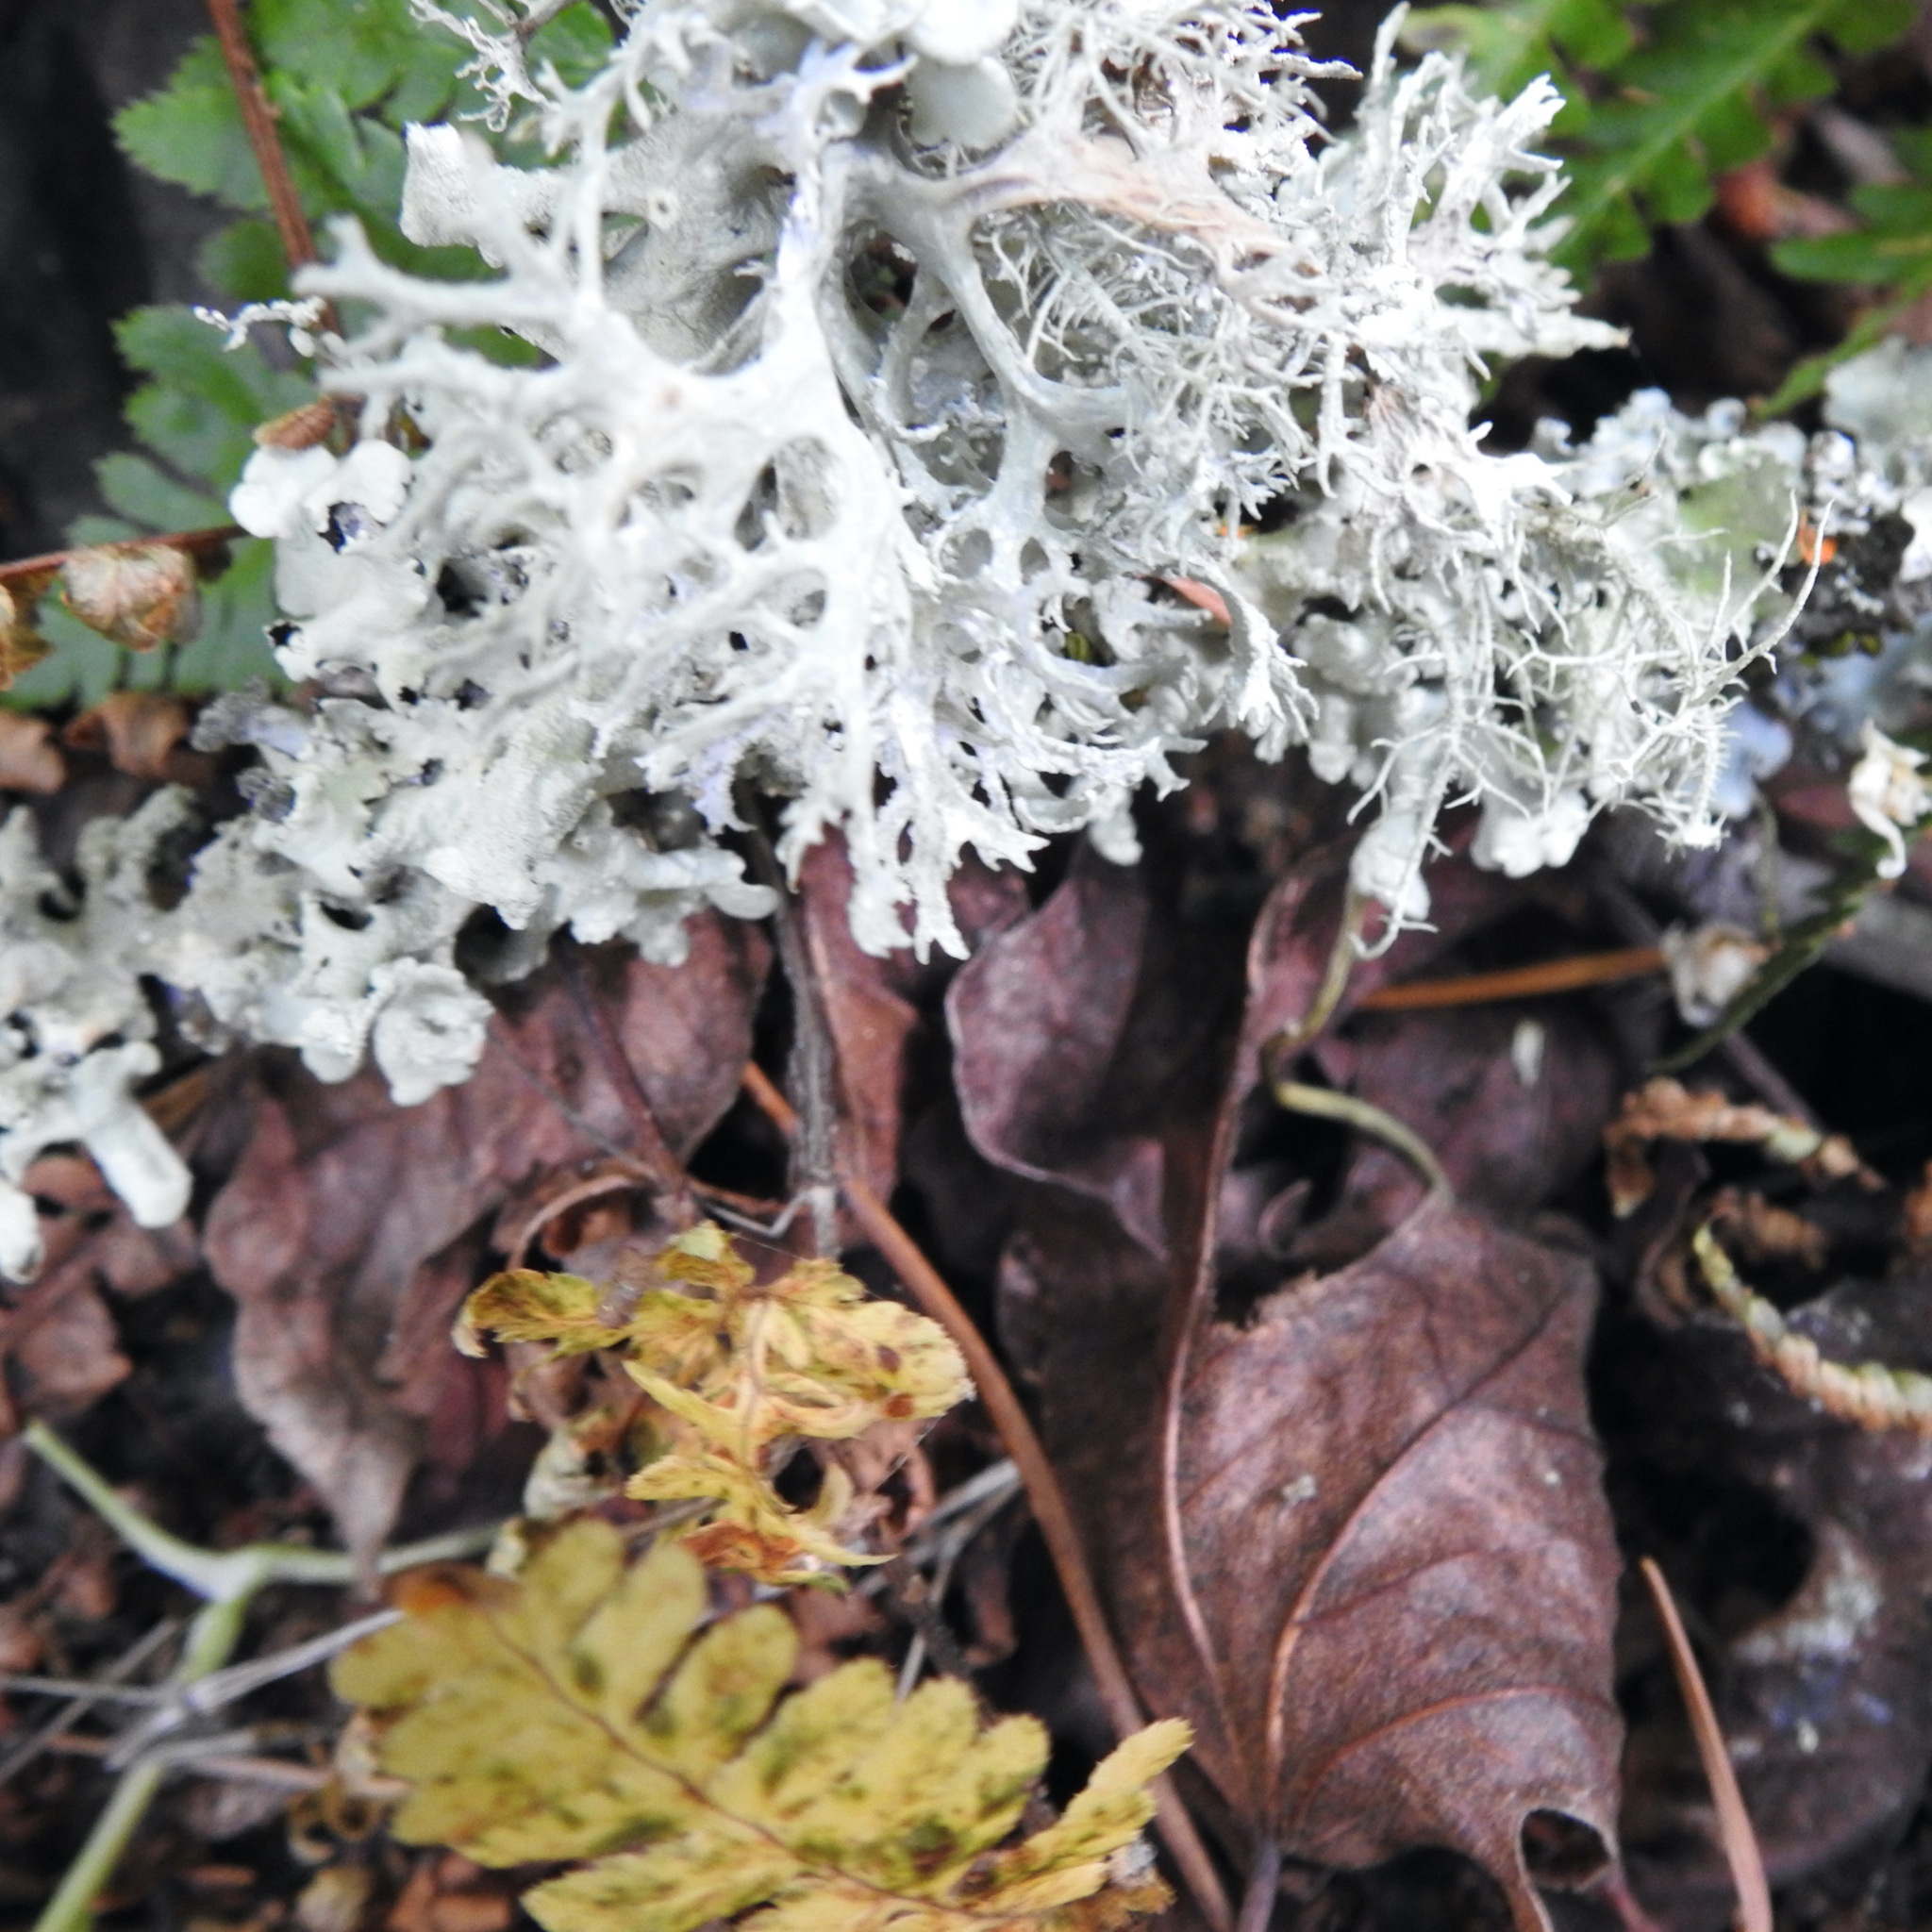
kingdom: Fungi
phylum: Ascomycota
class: Lecanoromycetes
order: Lecanorales
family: Parmeliaceae
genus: Evernia
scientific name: Evernia prunastri
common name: Oak moss
